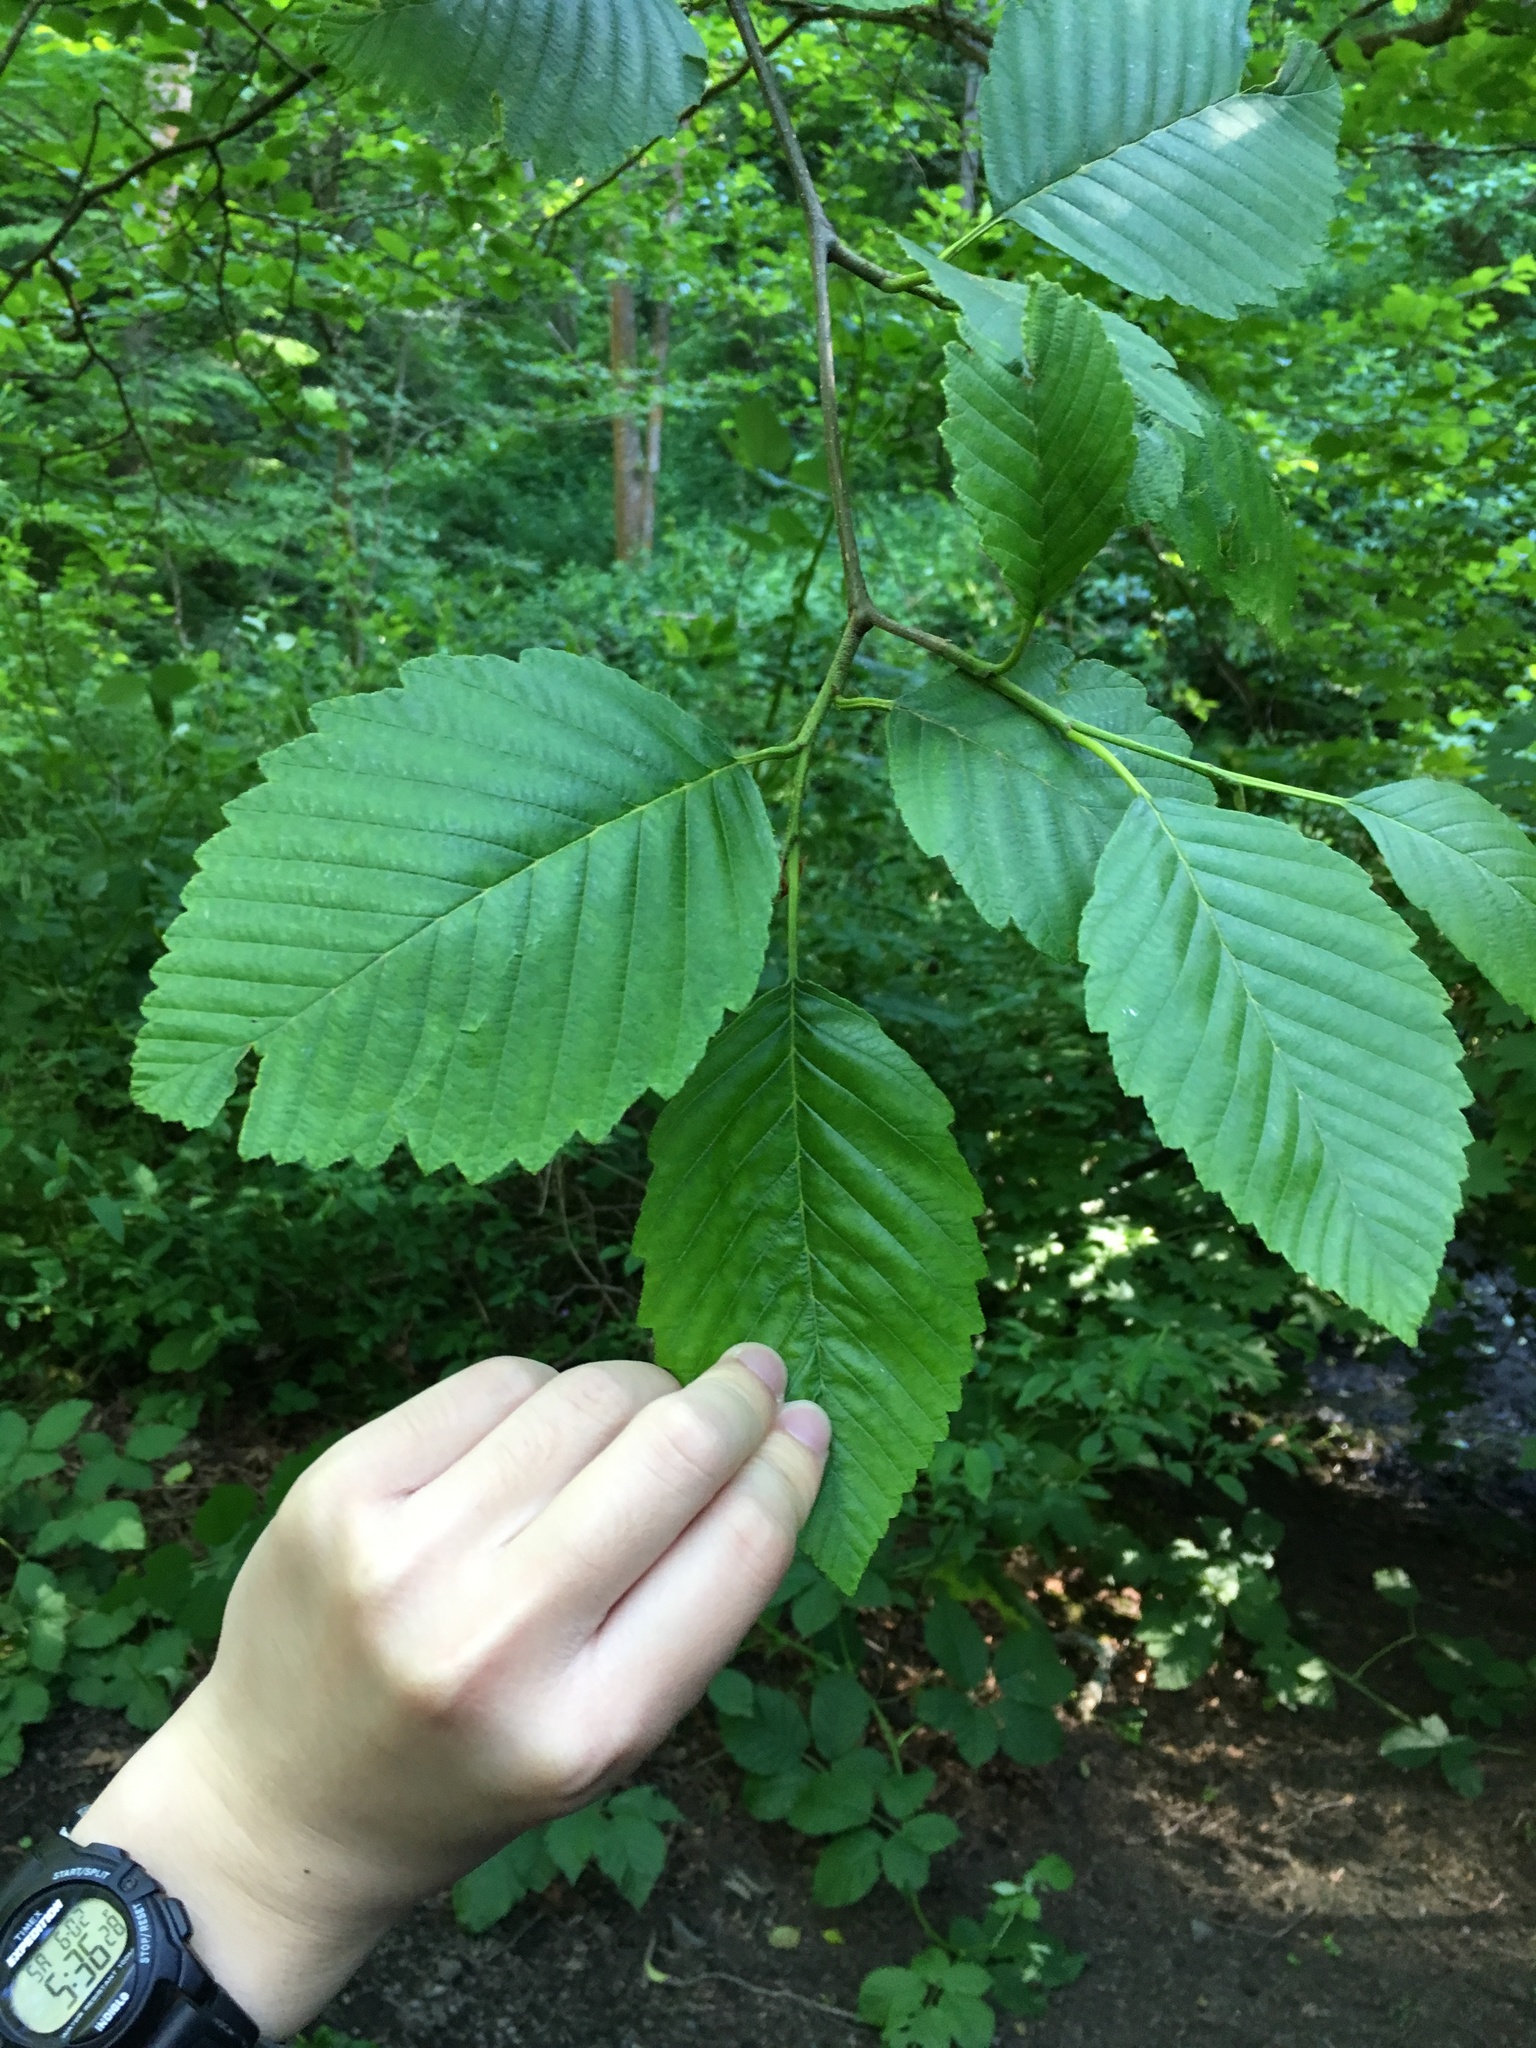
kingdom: Plantae
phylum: Tracheophyta
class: Magnoliopsida
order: Fagales
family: Betulaceae
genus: Alnus
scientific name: Alnus rubra
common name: Red alder
